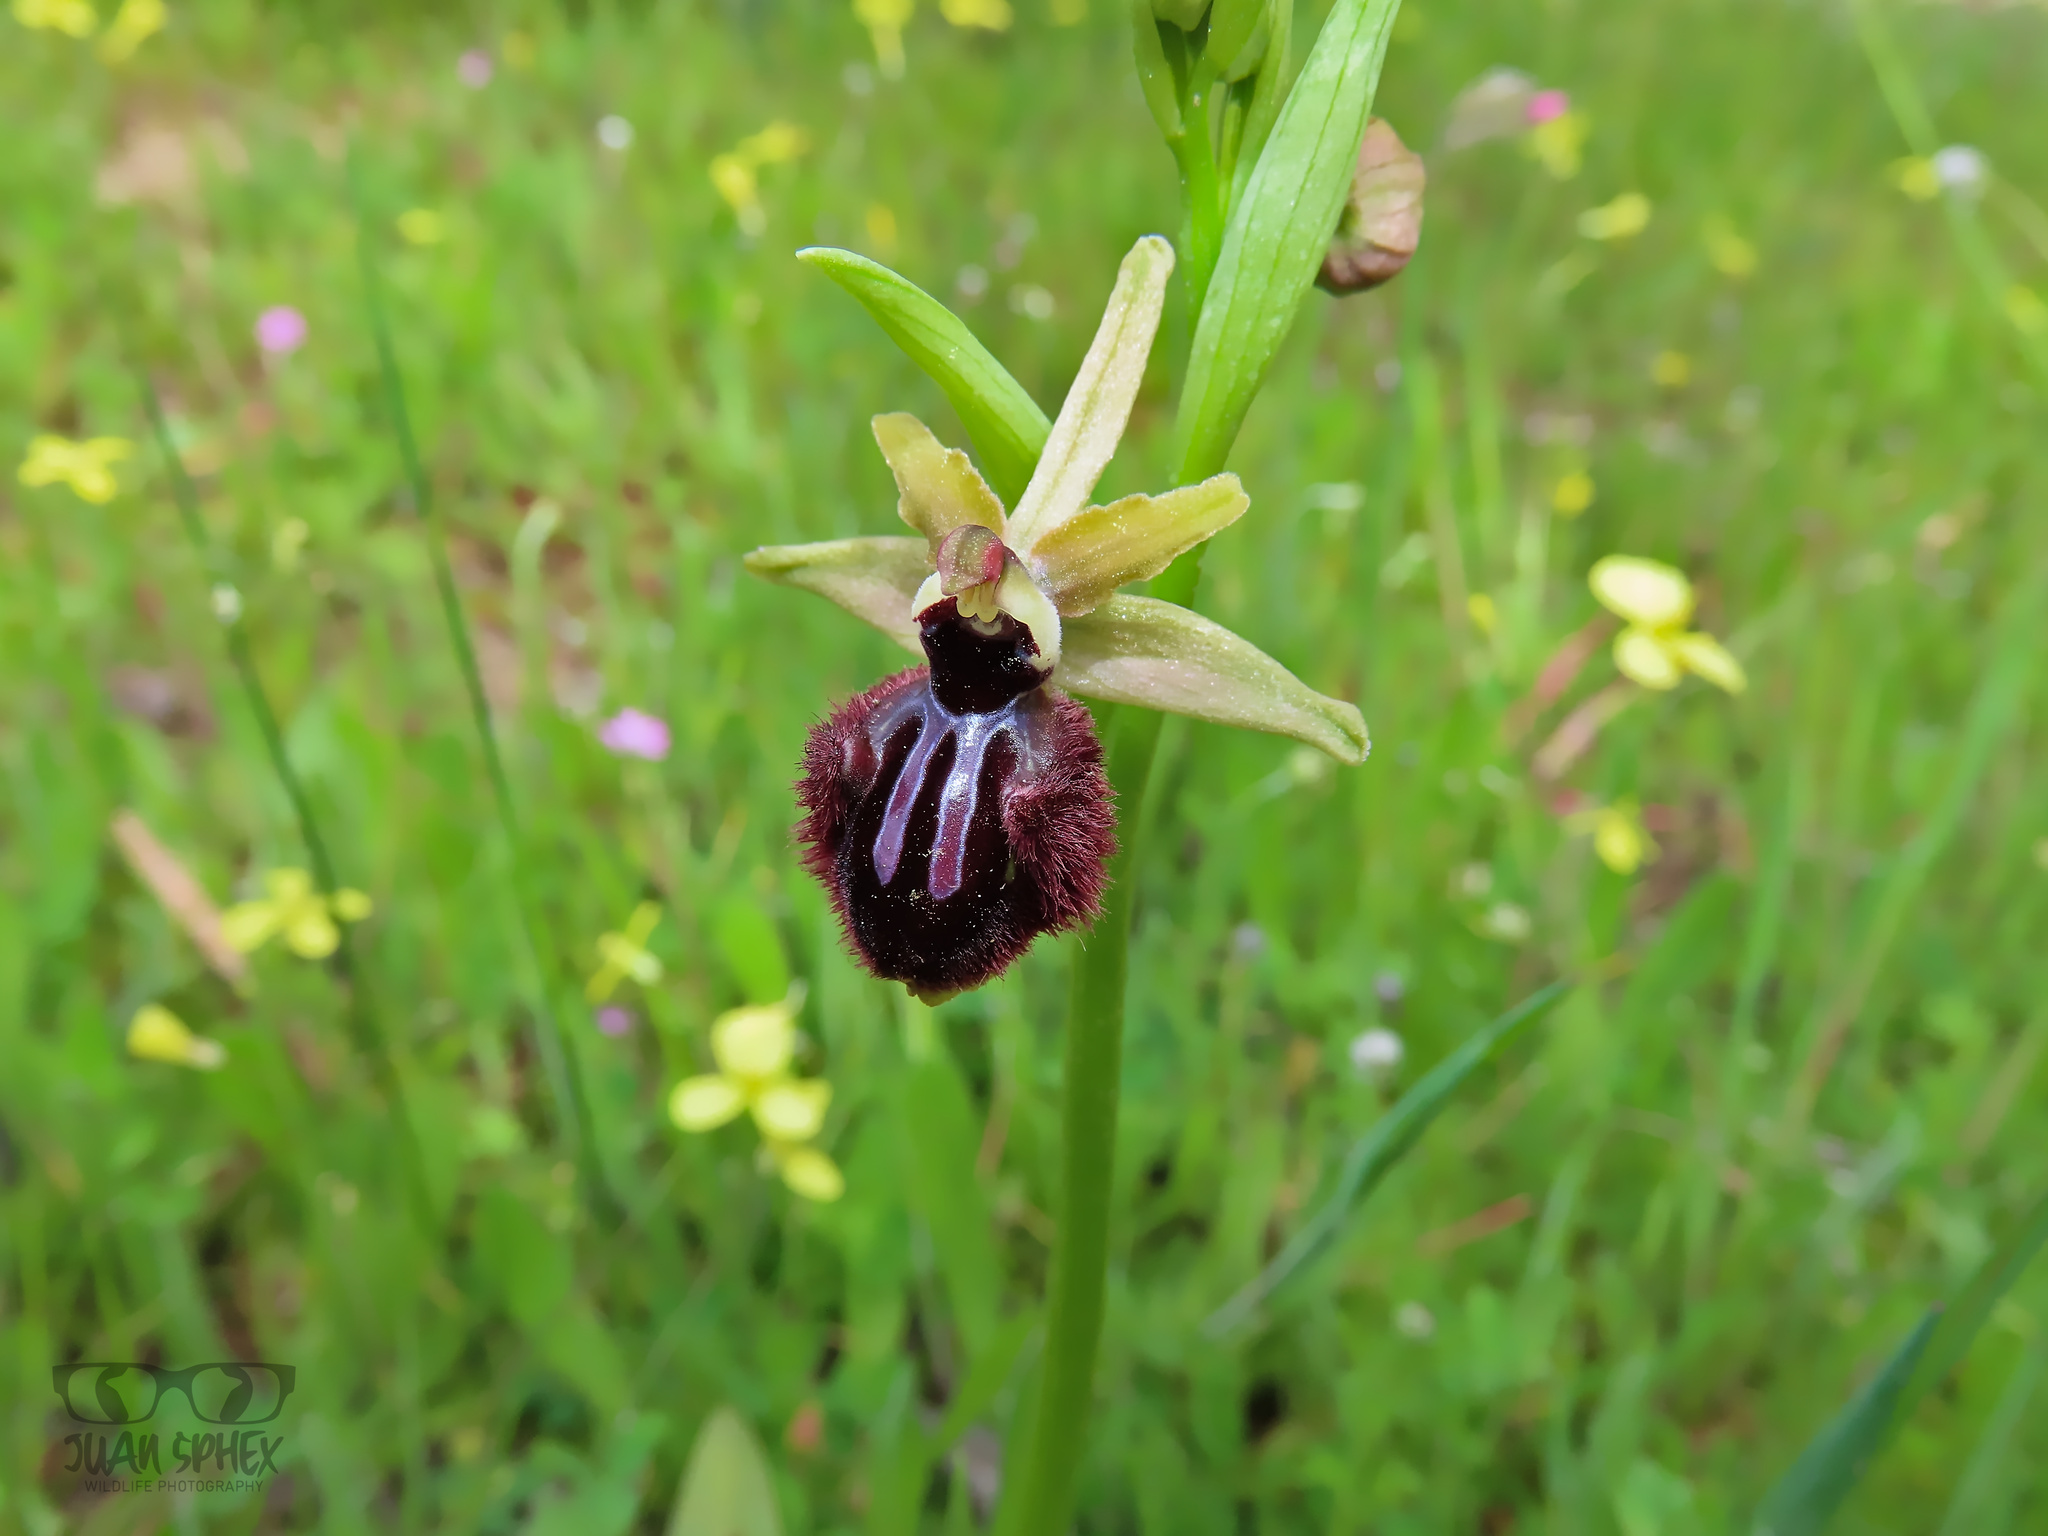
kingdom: Plantae
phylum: Tracheophyta
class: Liliopsida
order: Asparagales
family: Orchidaceae
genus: Ophrys
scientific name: Ophrys sphegodes
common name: Early spider-orchid
